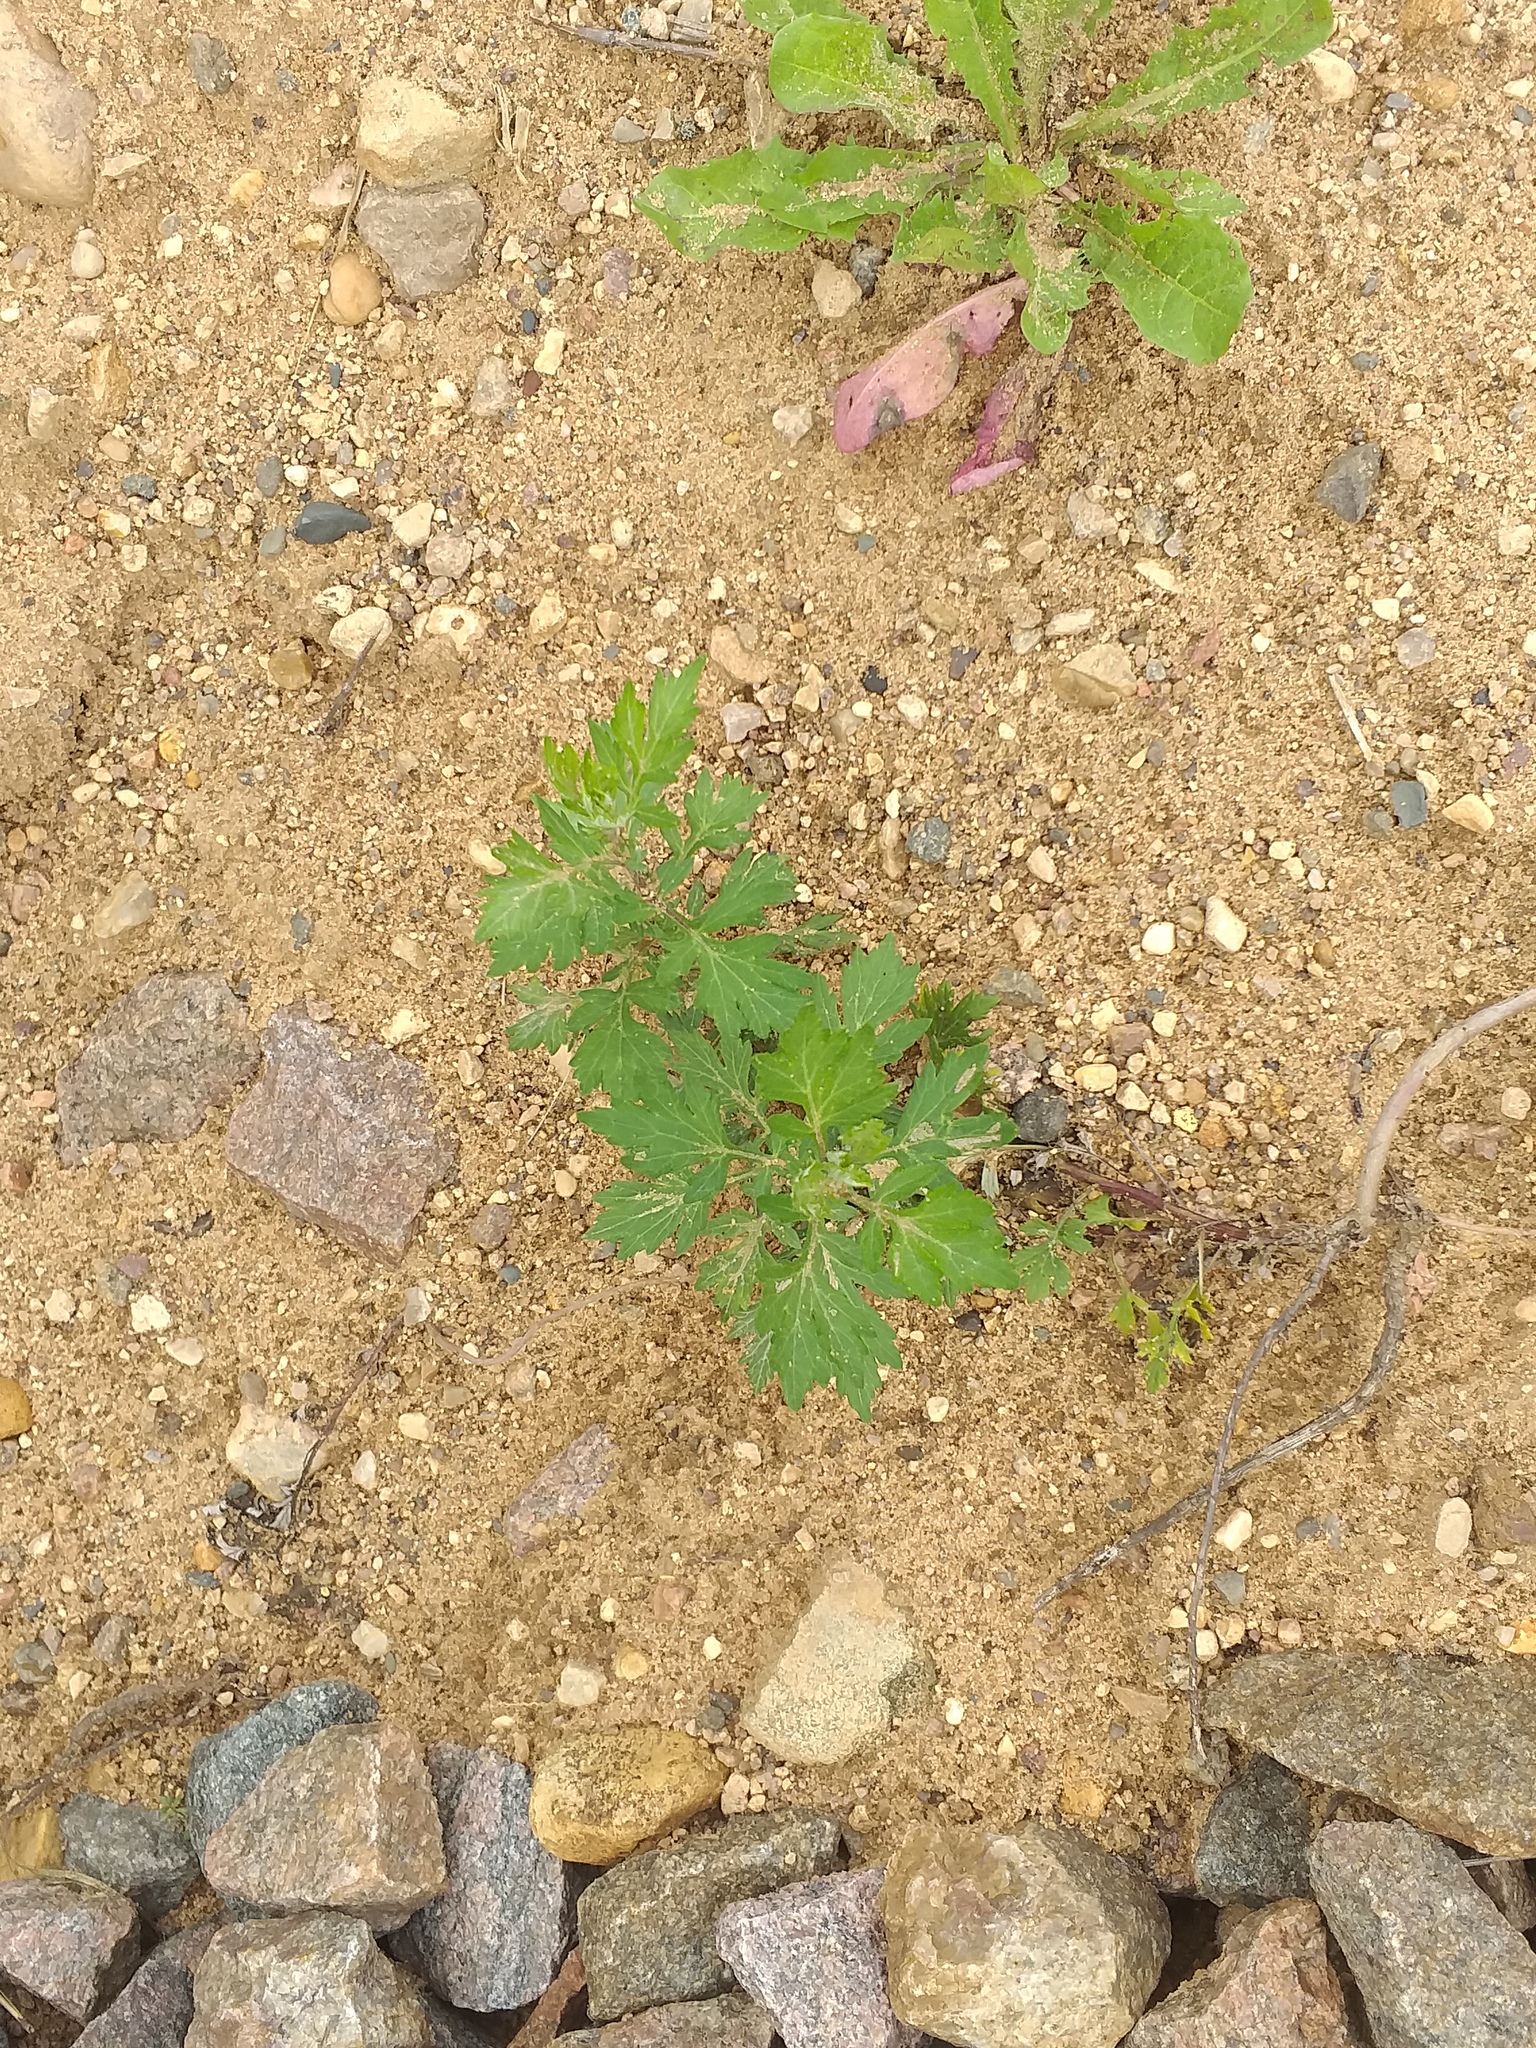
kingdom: Plantae
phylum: Tracheophyta
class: Magnoliopsida
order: Asterales
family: Asteraceae
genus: Artemisia
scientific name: Artemisia vulgaris
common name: Mugwort
